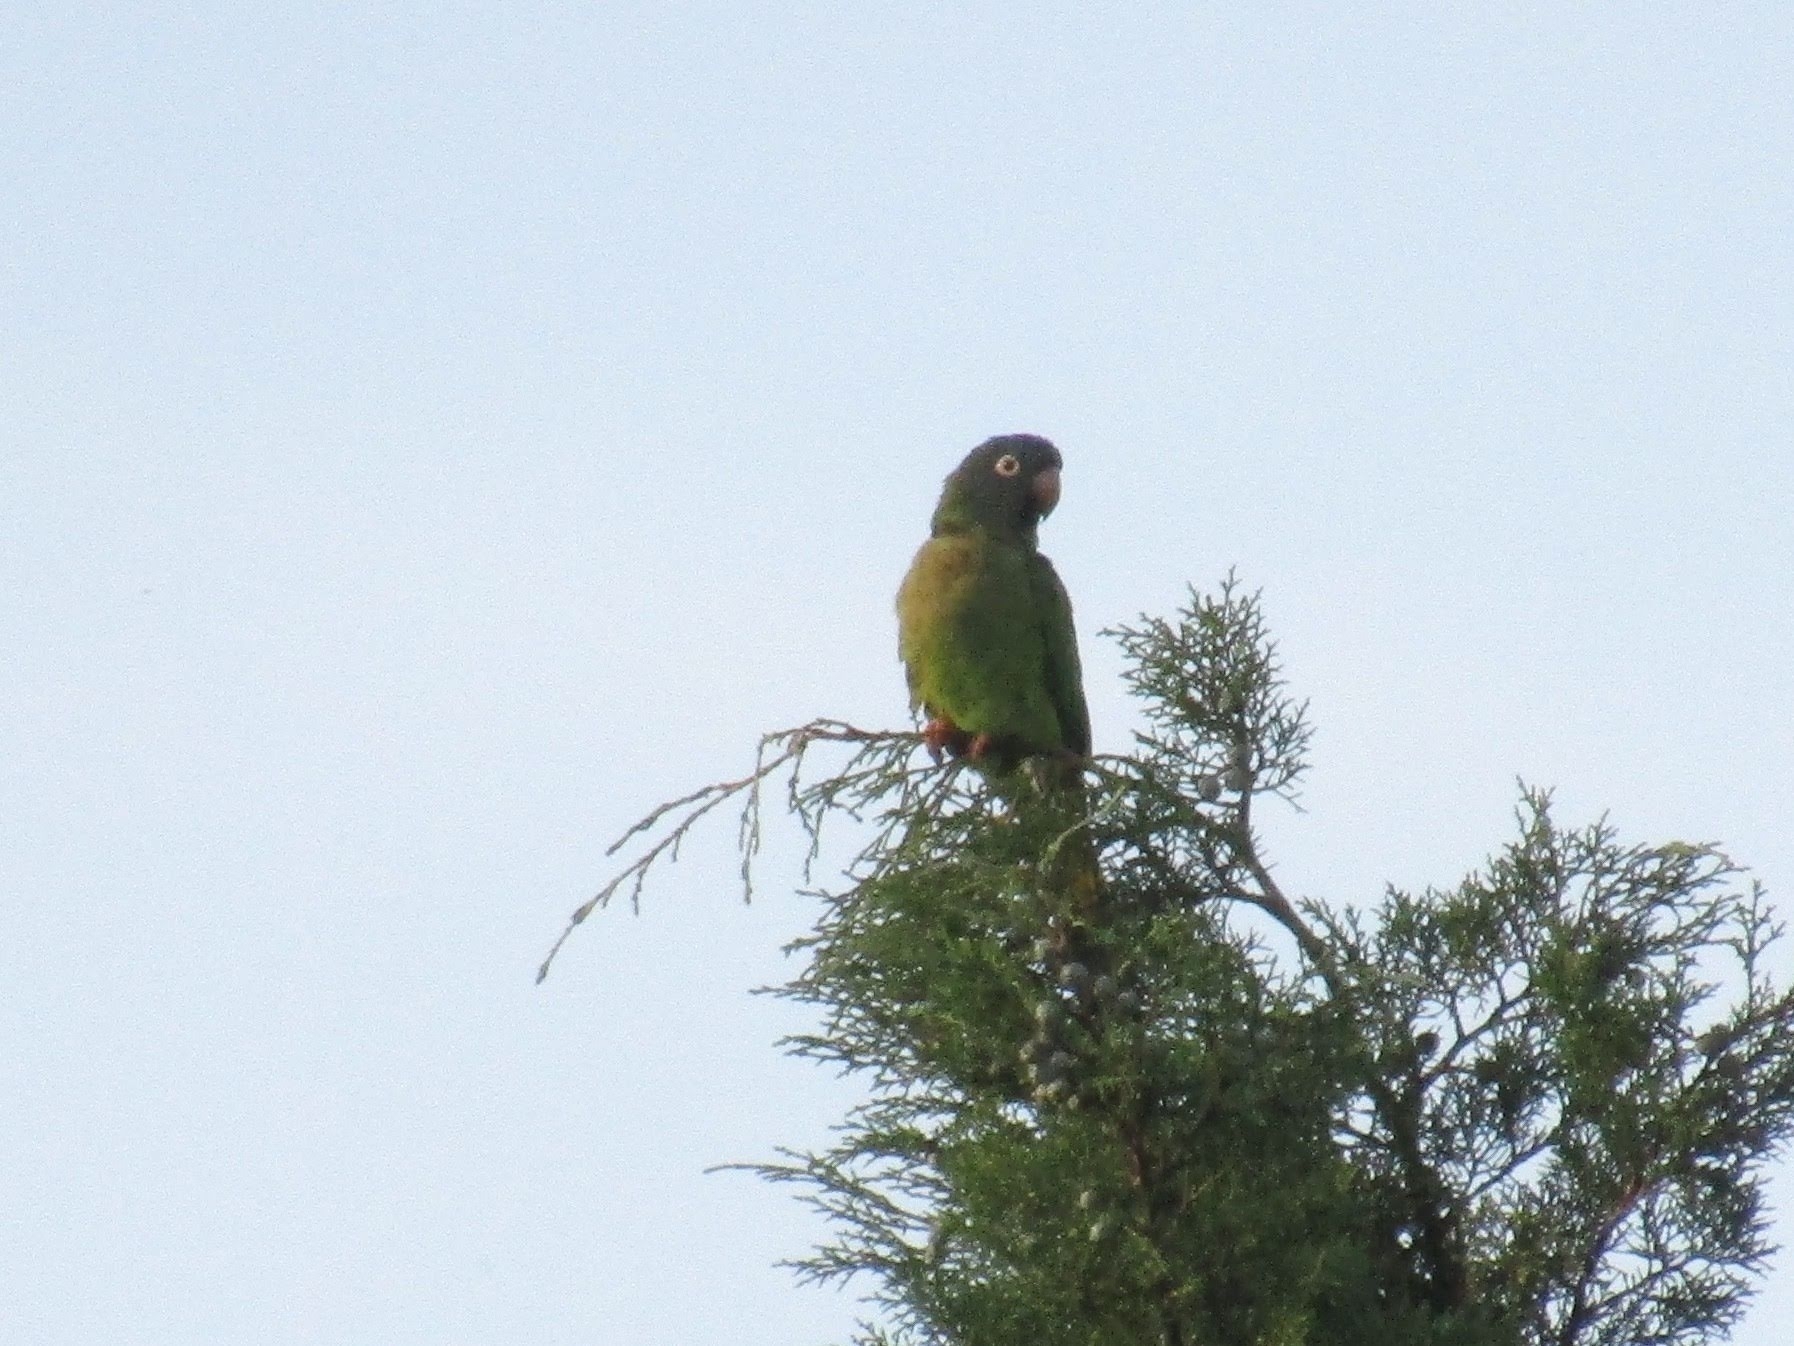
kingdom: Animalia
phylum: Chordata
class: Aves
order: Psittaciformes
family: Psittacidae
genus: Aratinga
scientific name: Aratinga acuticaudata
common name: Blue-crowned parakeet
